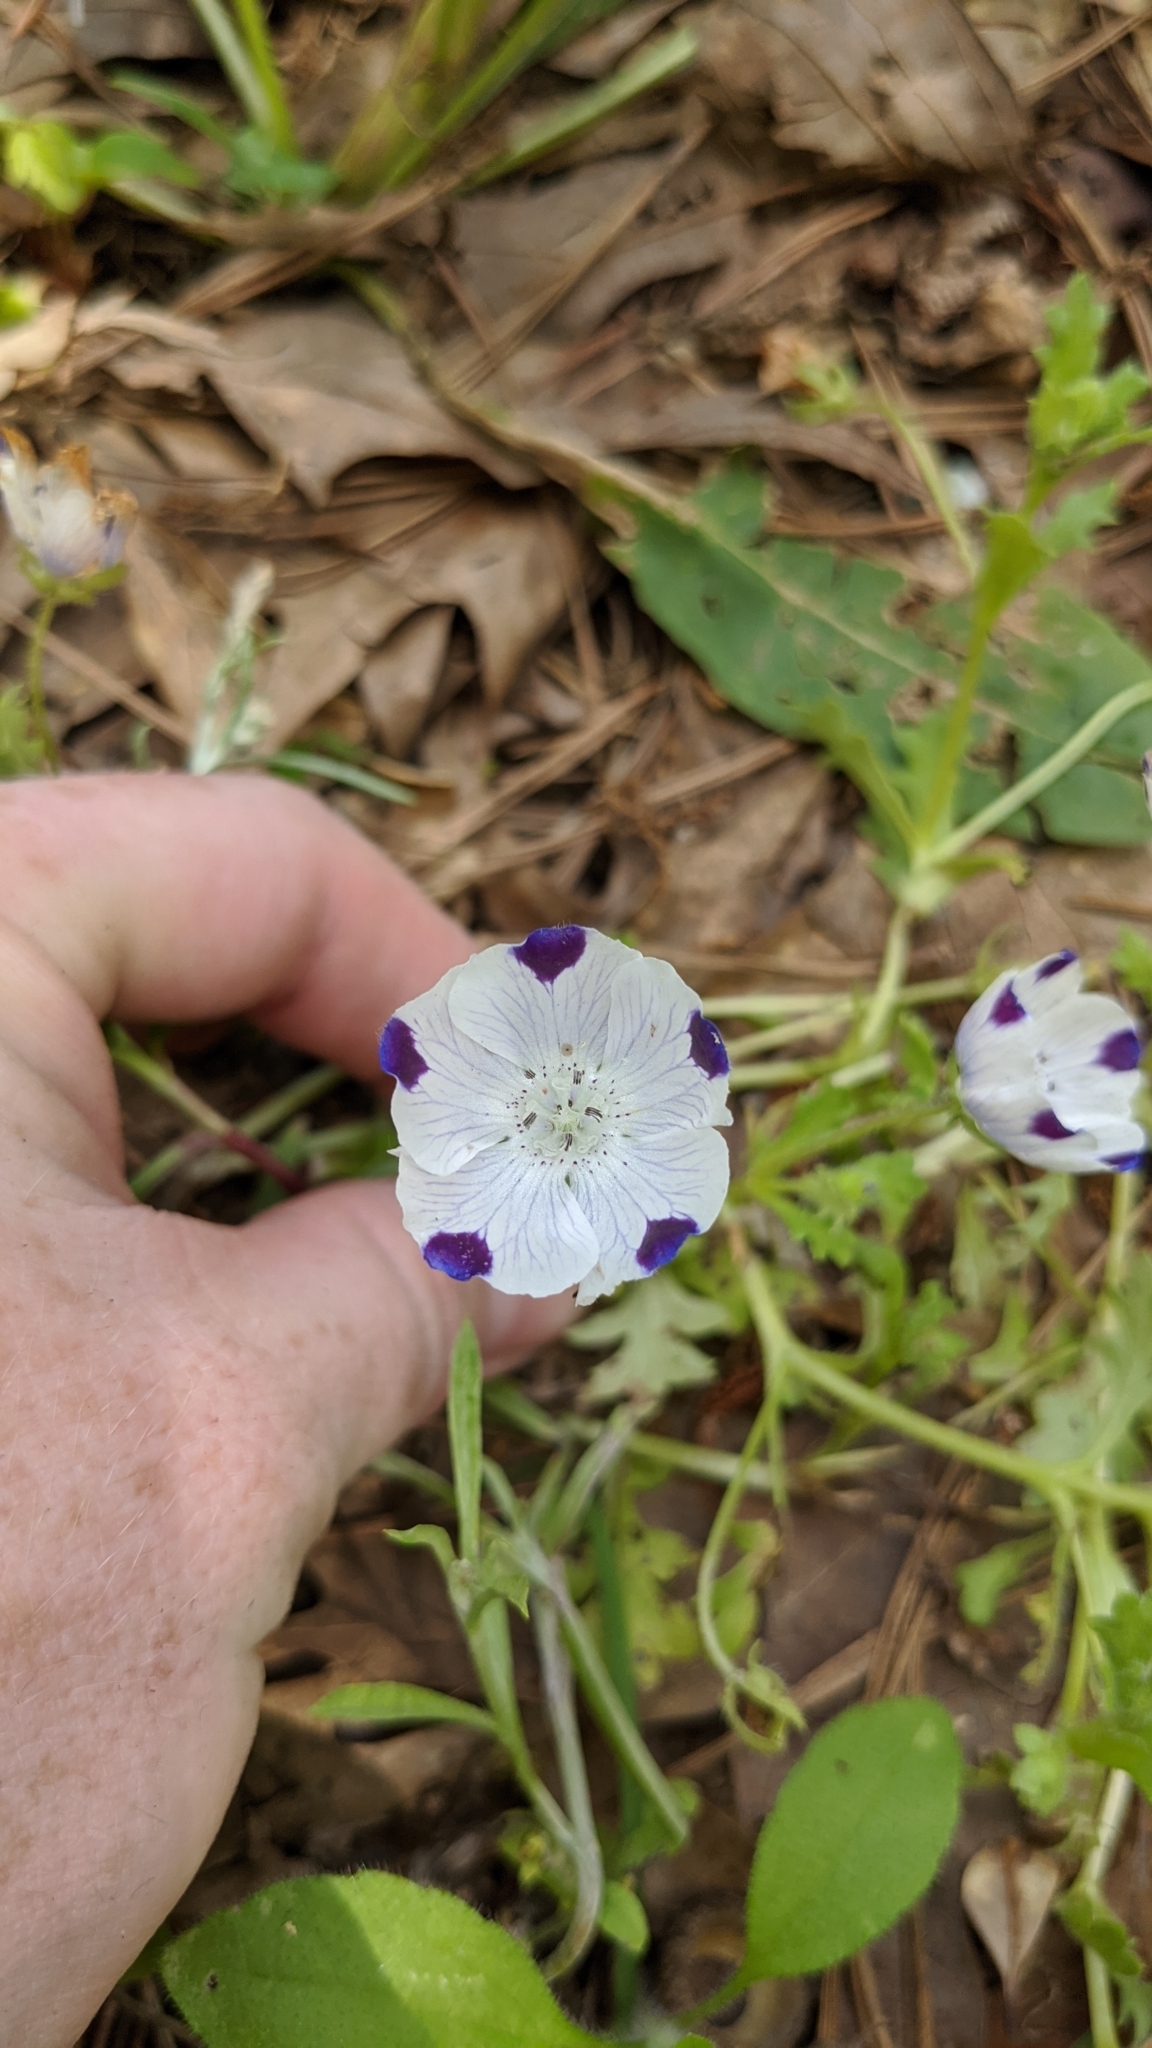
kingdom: Plantae
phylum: Tracheophyta
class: Magnoliopsida
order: Boraginales
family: Hydrophyllaceae
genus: Nemophila
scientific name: Nemophila maculata
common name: Fivespot
